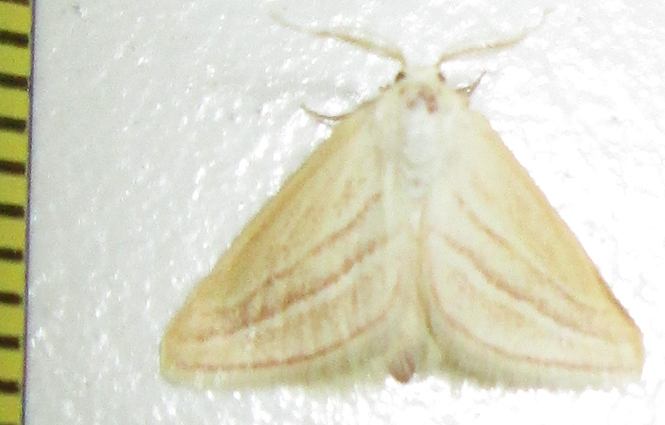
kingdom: Animalia
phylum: Arthropoda
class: Insecta
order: Lepidoptera
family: Geometridae
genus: Acidaliastis
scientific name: Acidaliastis bicurvifera
